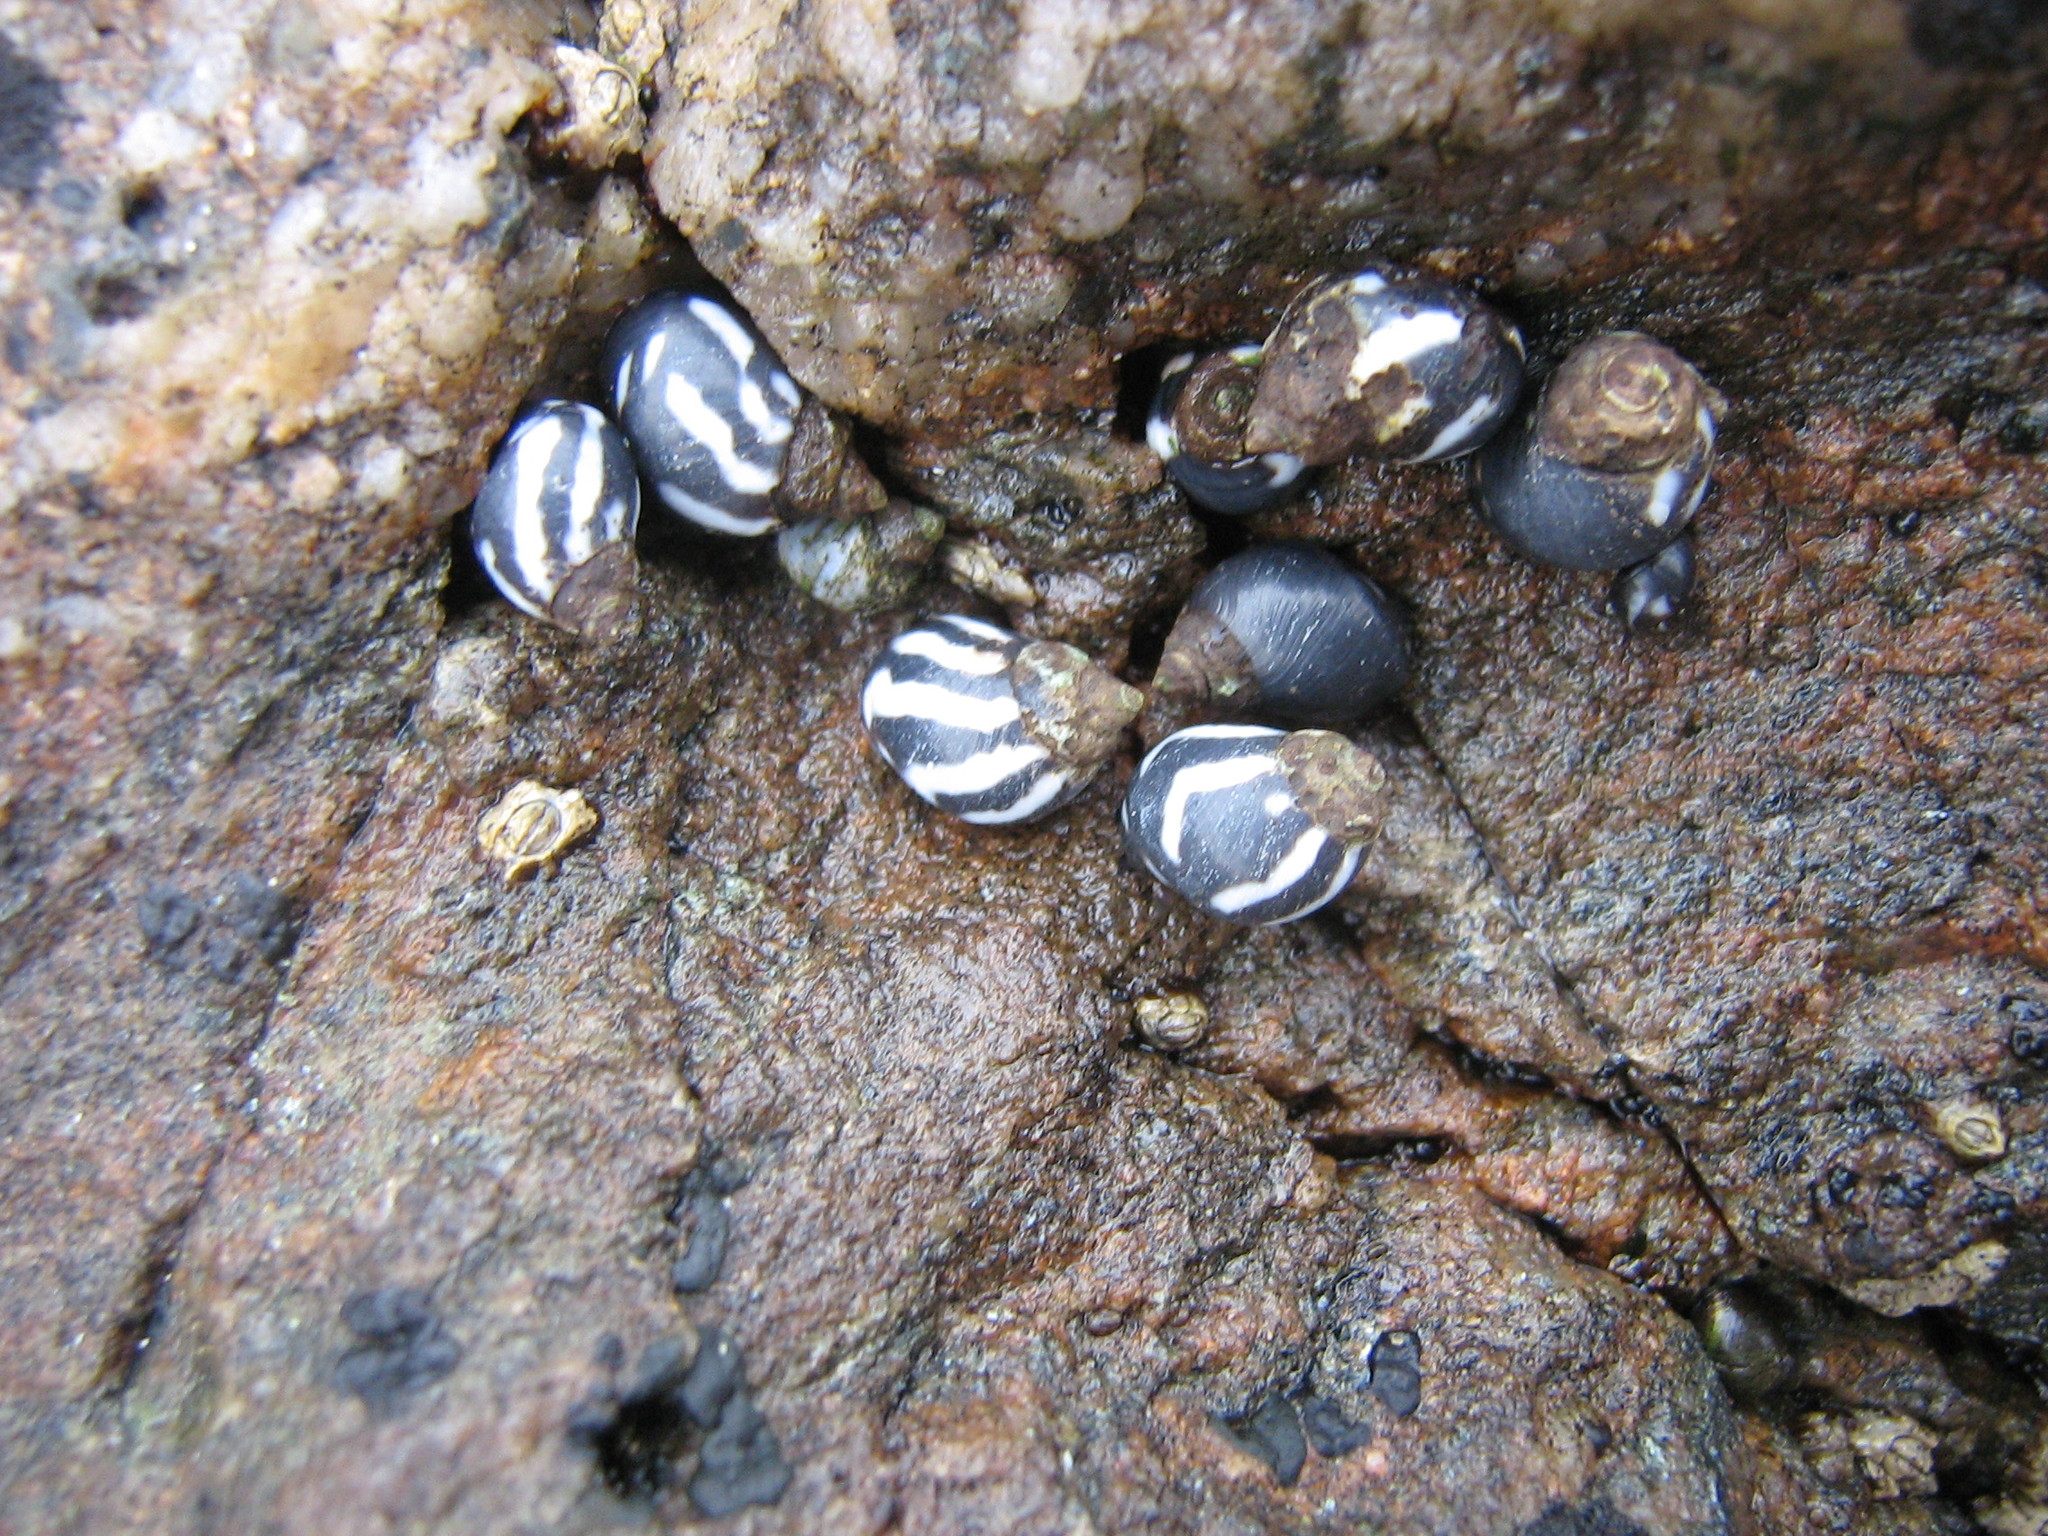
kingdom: Animalia
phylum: Mollusca
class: Gastropoda
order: Littorinimorpha
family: Littorinidae
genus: Echinolittorina
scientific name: Echinolittorina peruviana
